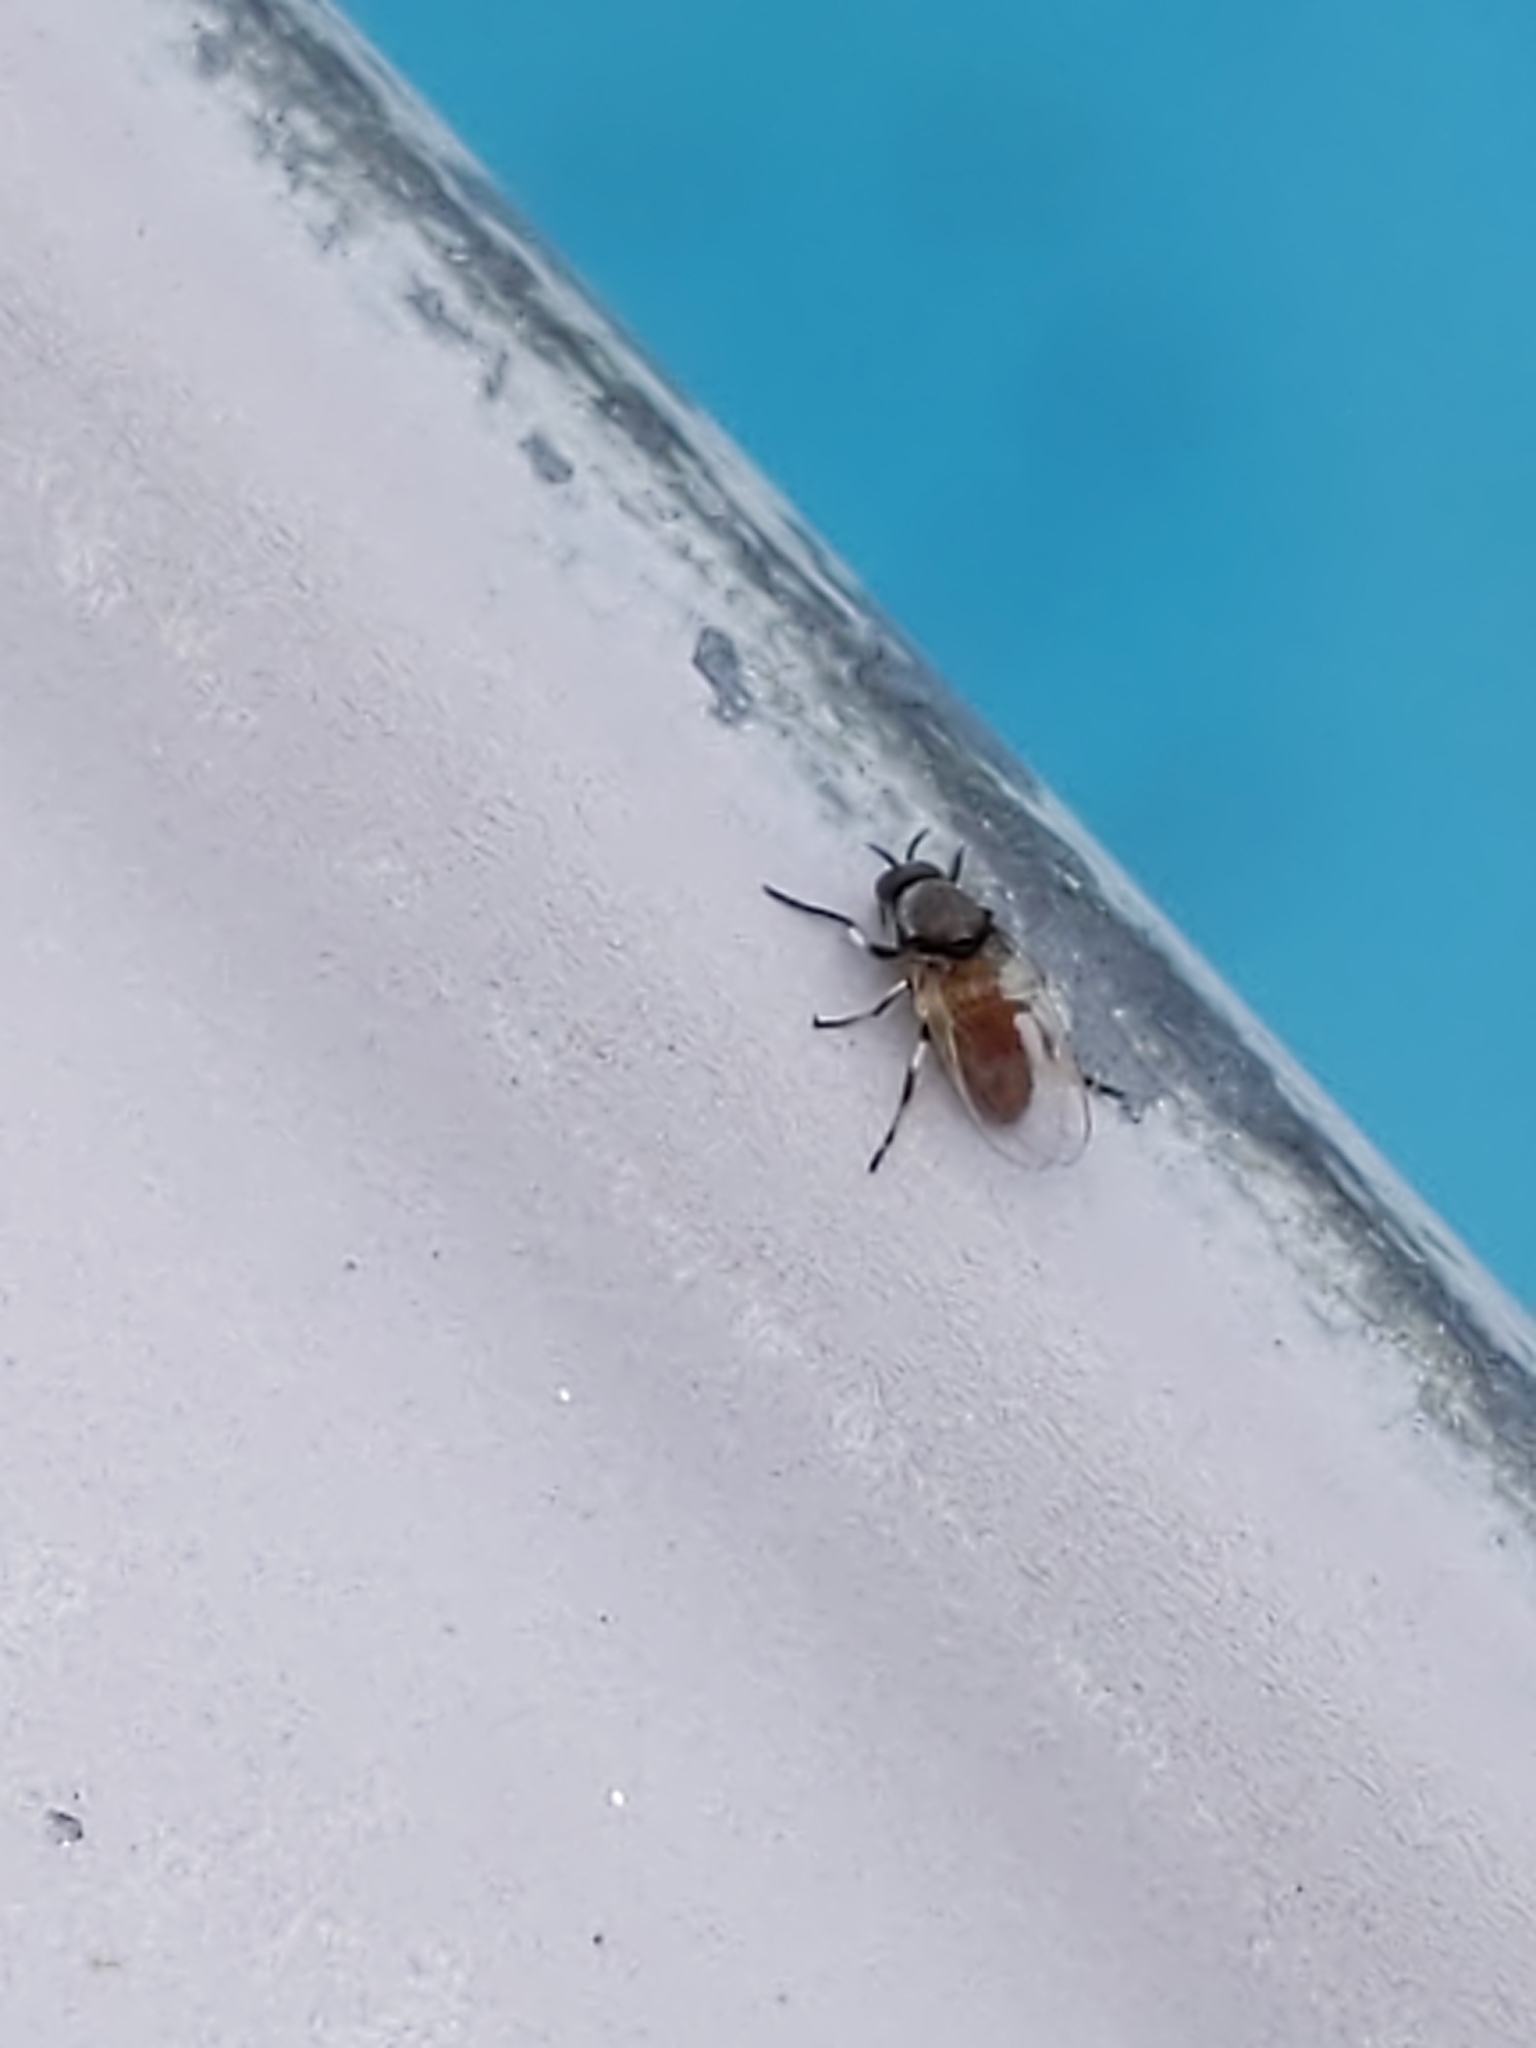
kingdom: Animalia
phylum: Arthropoda
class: Insecta
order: Diptera
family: Simuliidae
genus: Simulium
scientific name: Simulium
